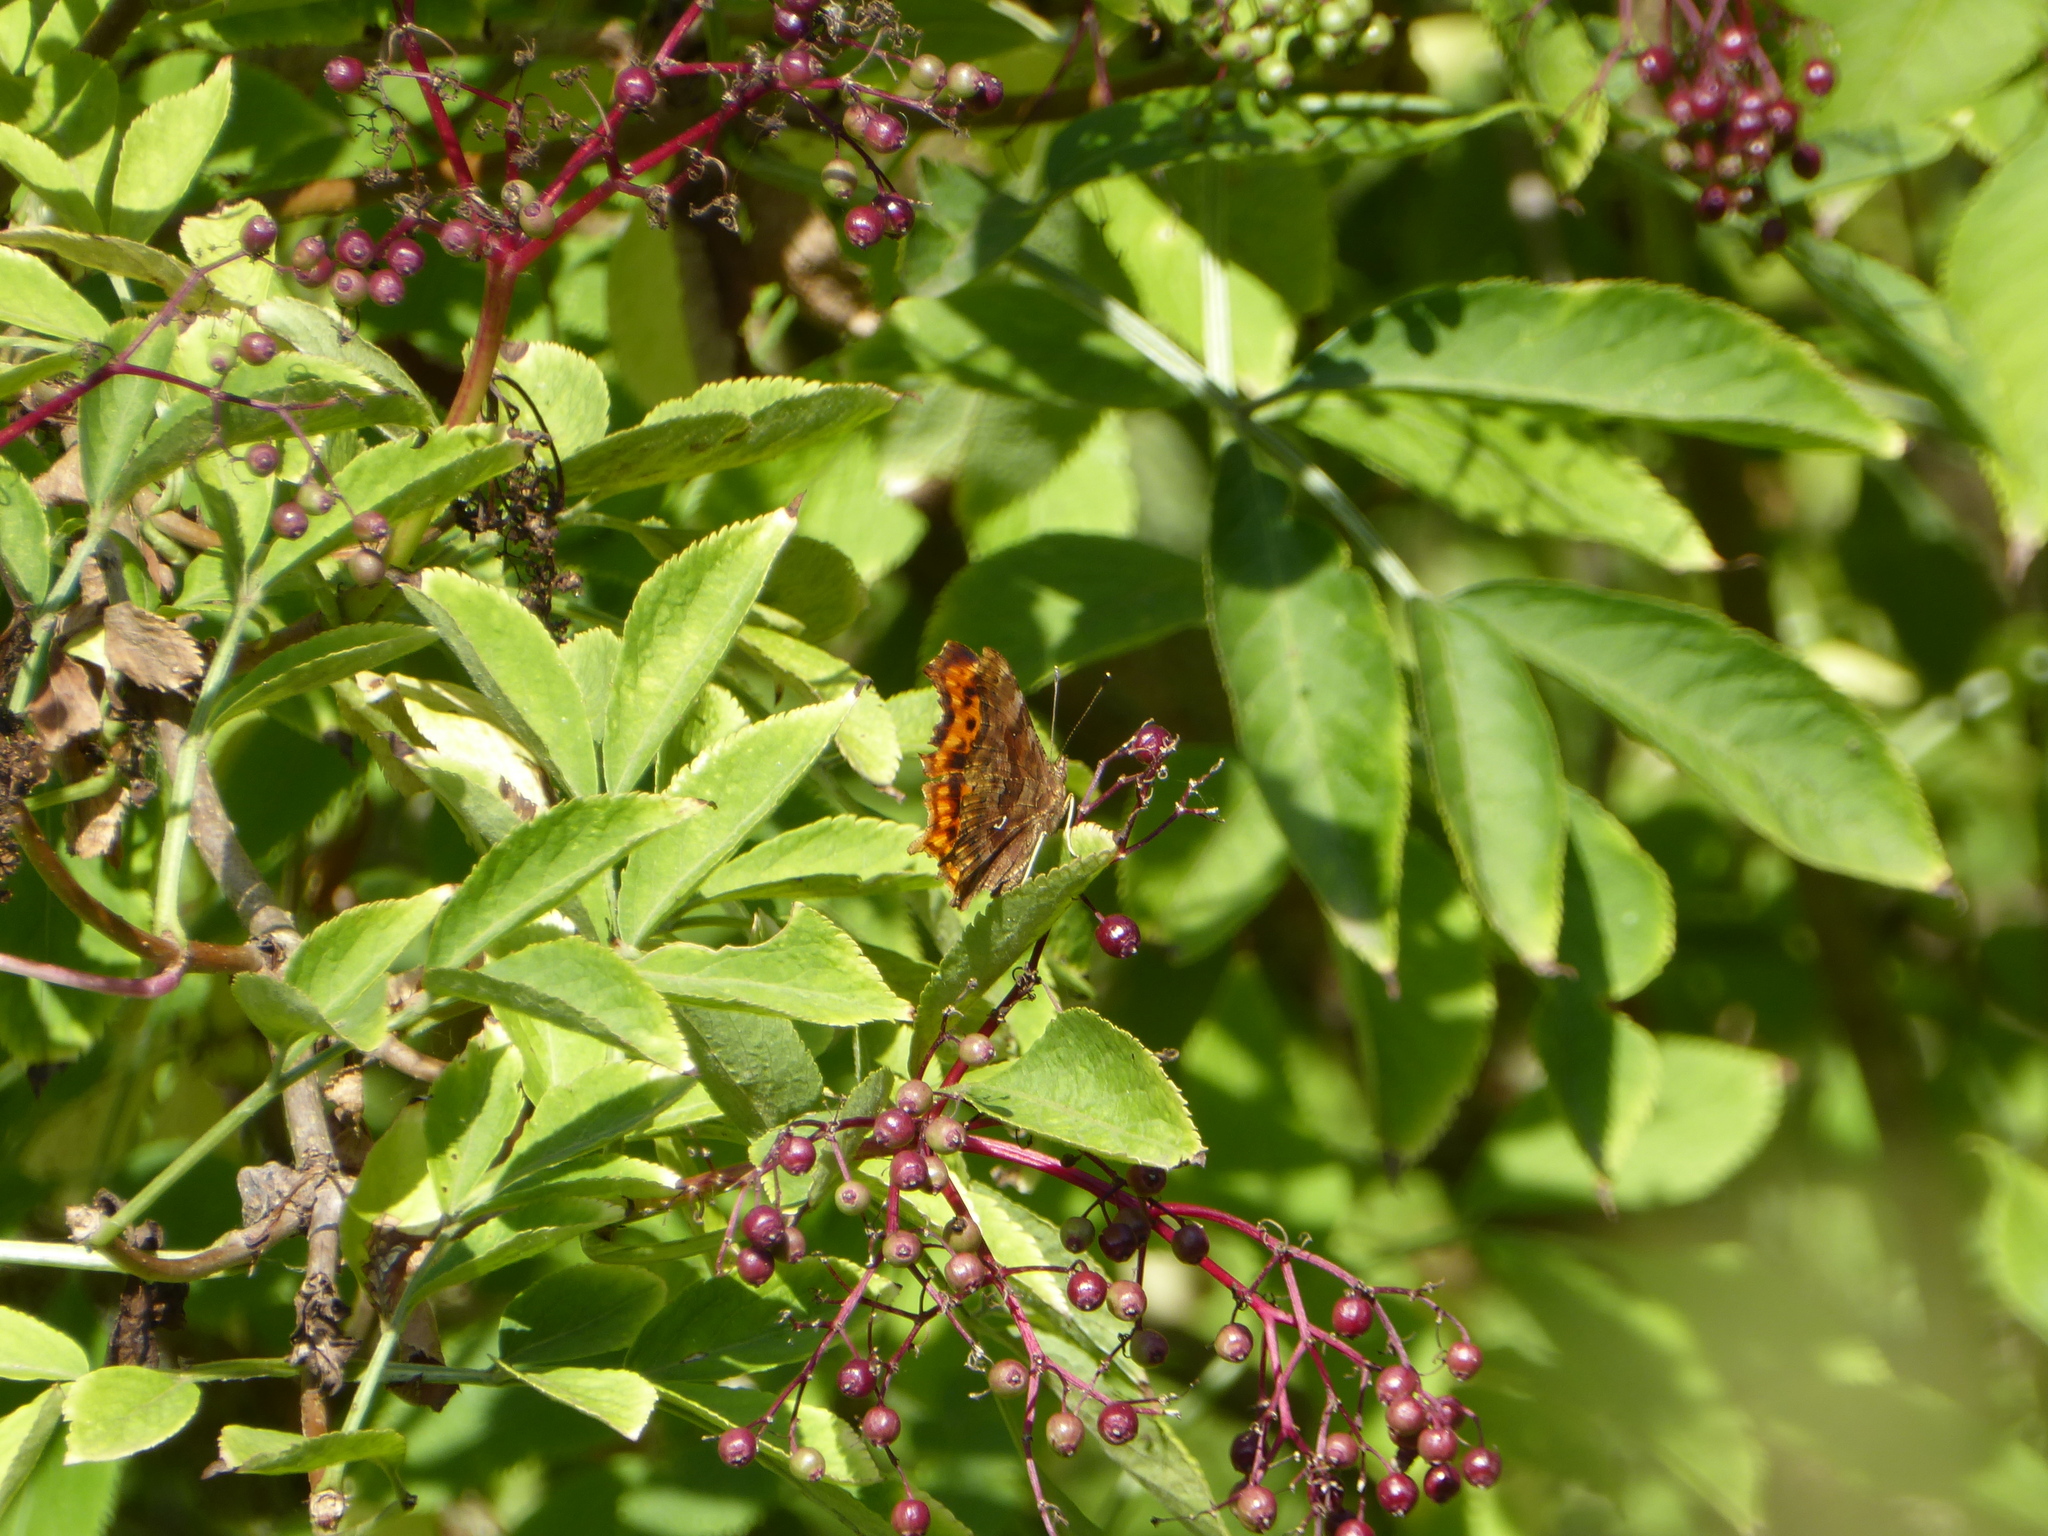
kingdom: Animalia
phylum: Arthropoda
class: Insecta
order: Lepidoptera
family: Nymphalidae
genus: Polygonia
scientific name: Polygonia c-album
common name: Comma
